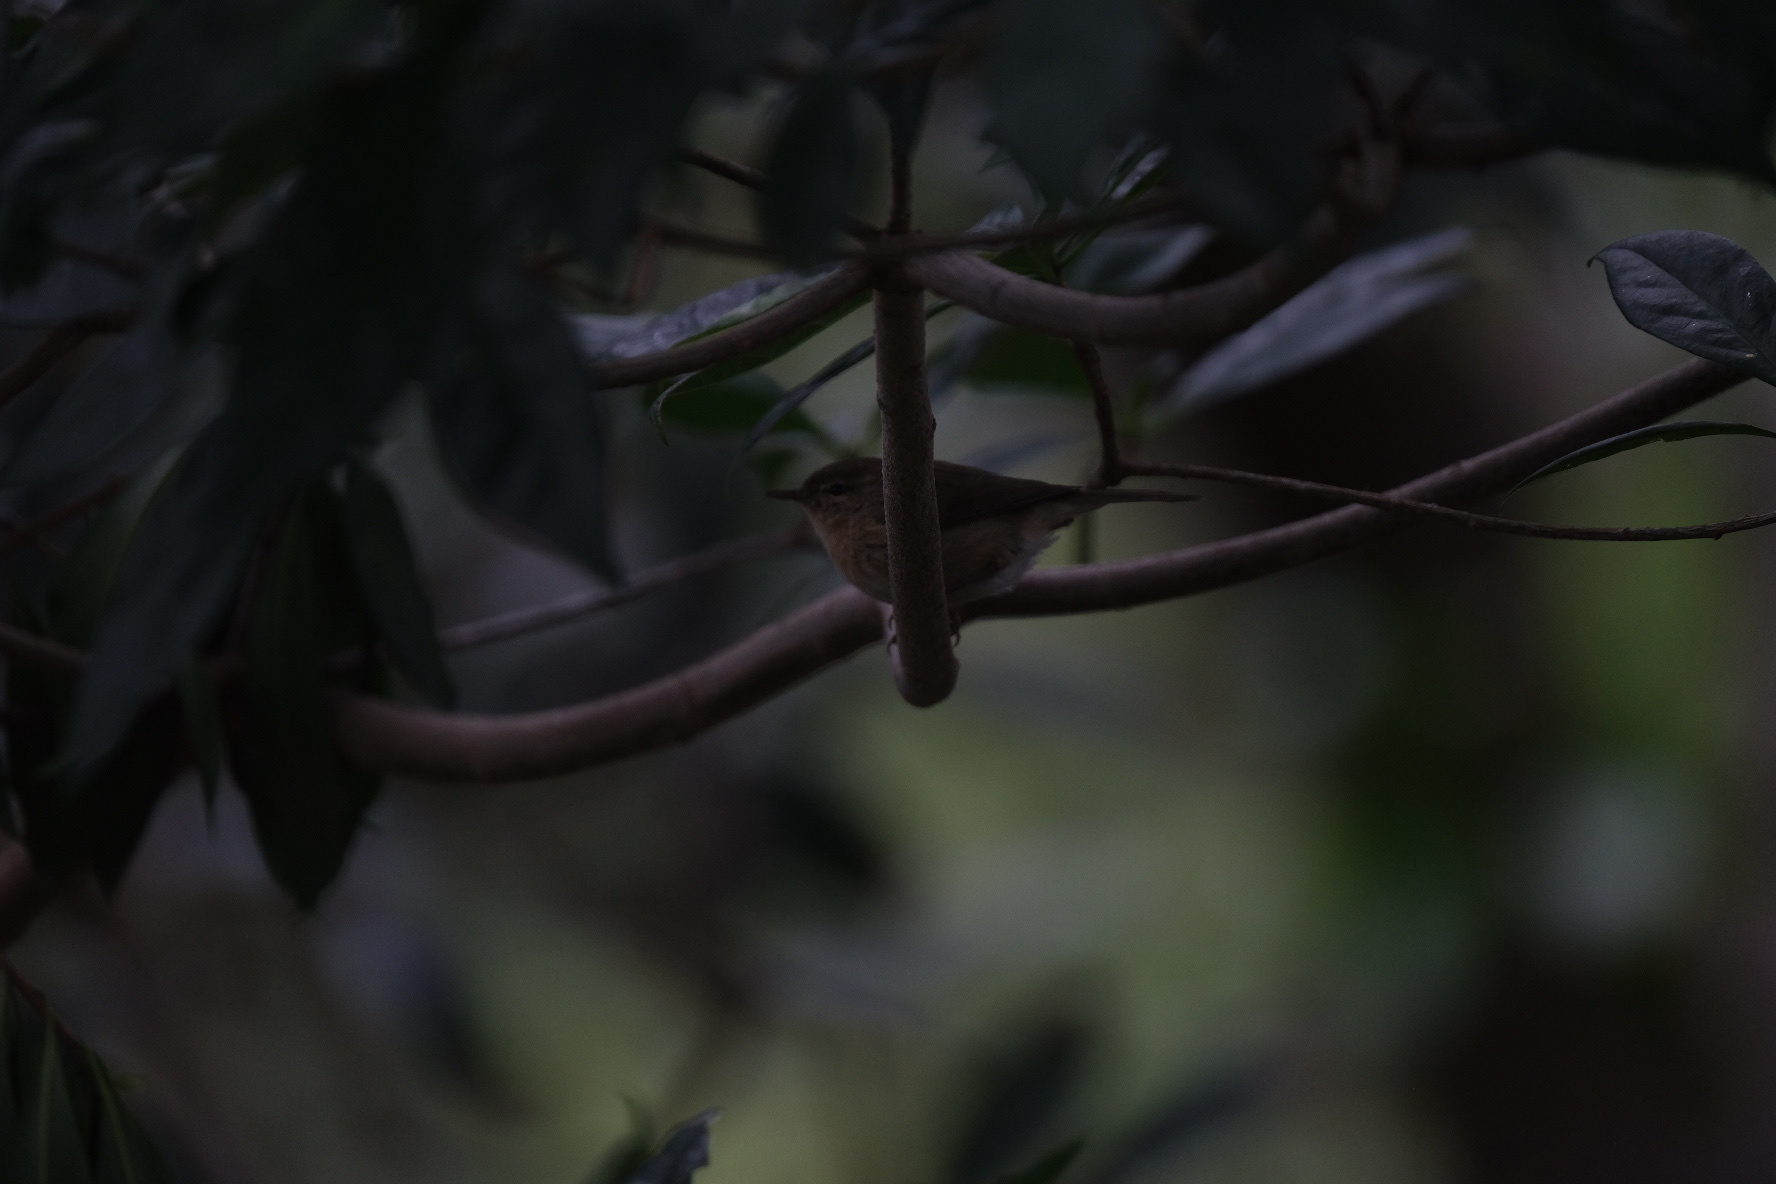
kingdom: Animalia
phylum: Chordata
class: Aves
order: Passeriformes
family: Phylloscopidae
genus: Phylloscopus
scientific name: Phylloscopus canariensis
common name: Canary islands chiffchaff
